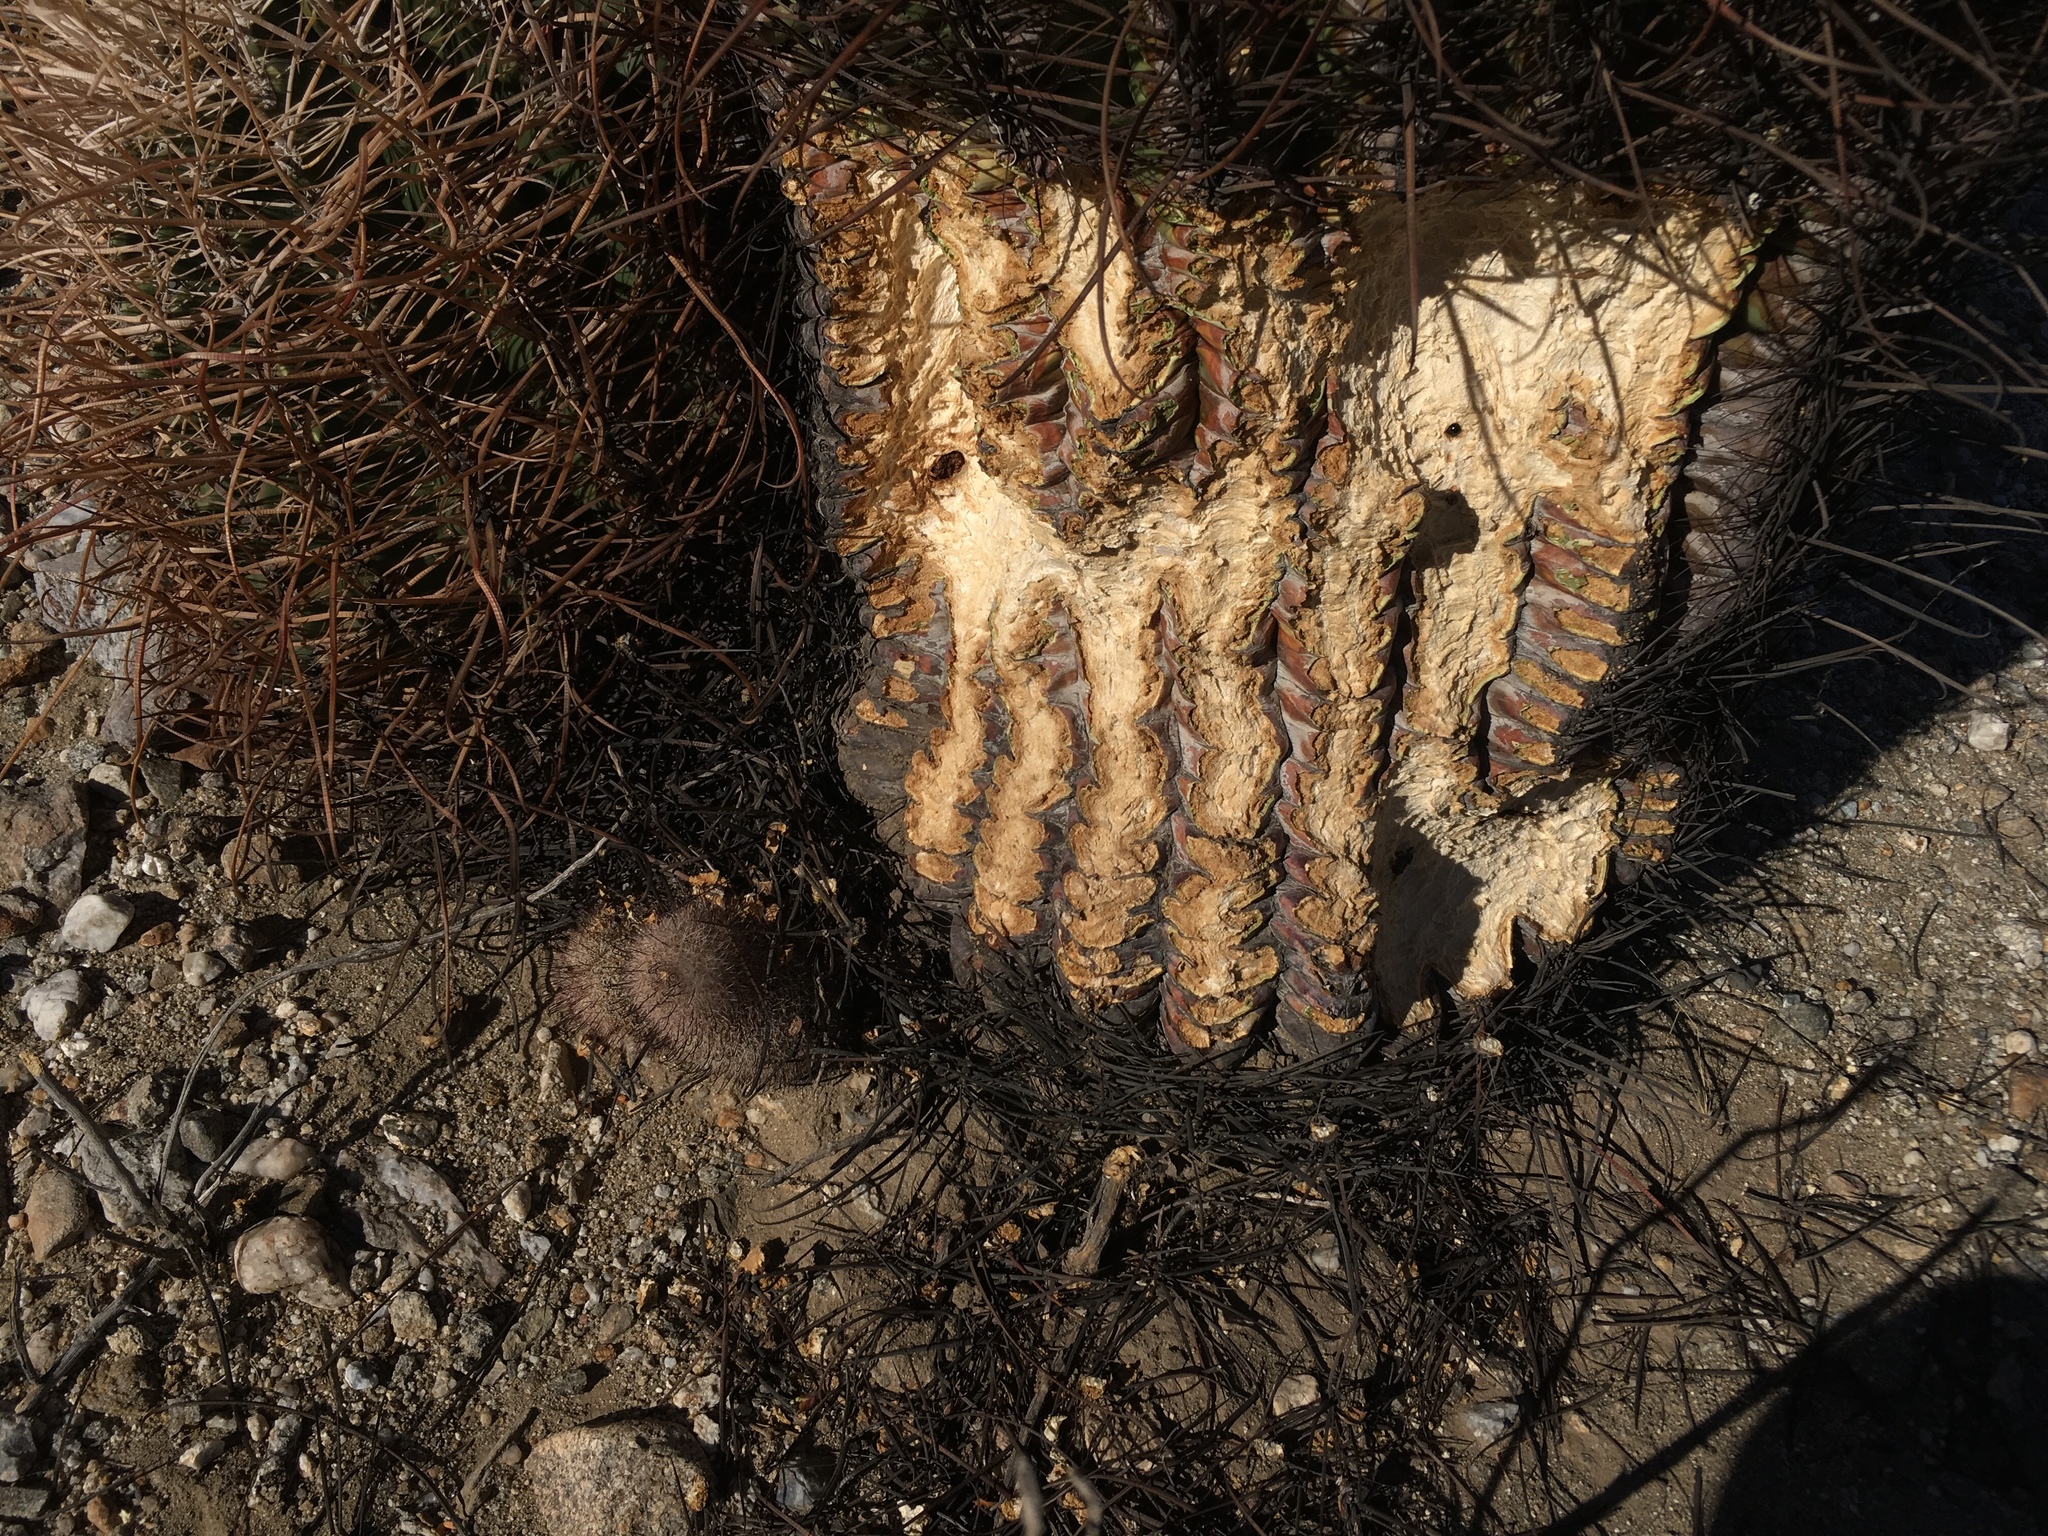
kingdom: Plantae
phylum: Tracheophyta
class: Magnoliopsida
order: Caryophyllales
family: Cactaceae
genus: Ferocactus
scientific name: Ferocactus cylindraceus
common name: California barrel cactus
